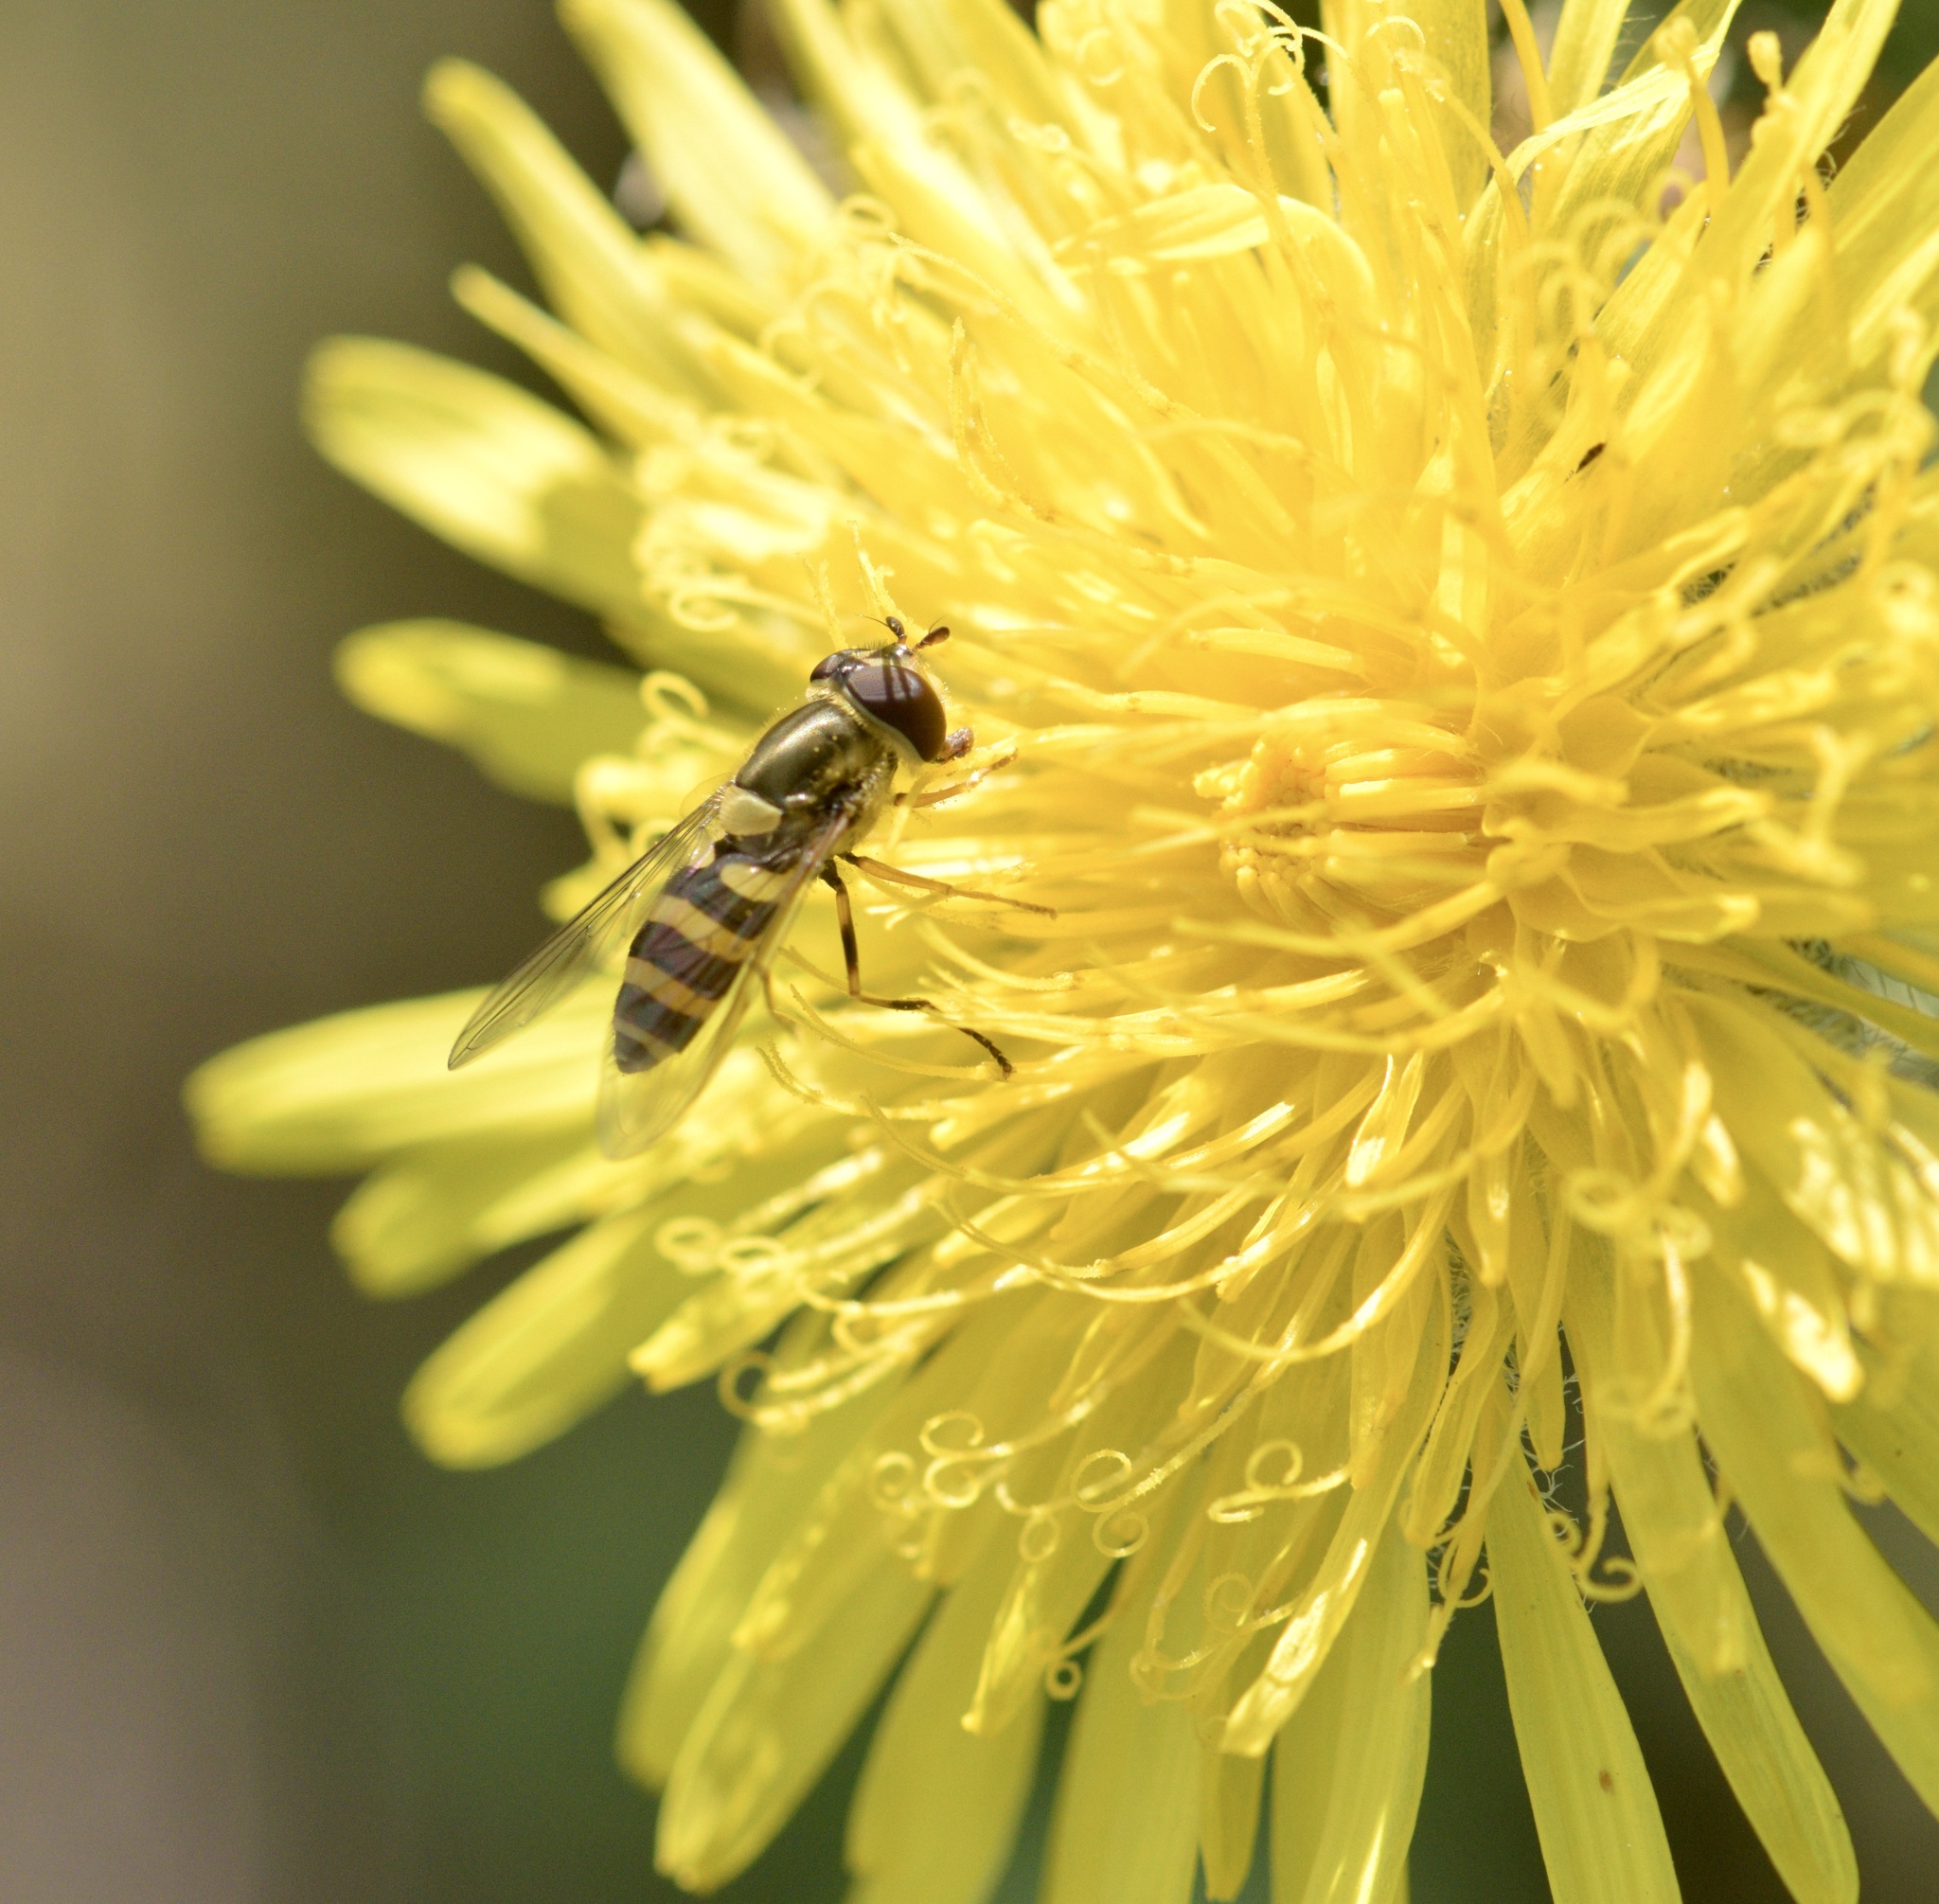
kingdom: Animalia
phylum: Arthropoda
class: Insecta
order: Diptera
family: Syrphidae
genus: Syrphus
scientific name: Syrphus rectus
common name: Yellow-legged flower fly
